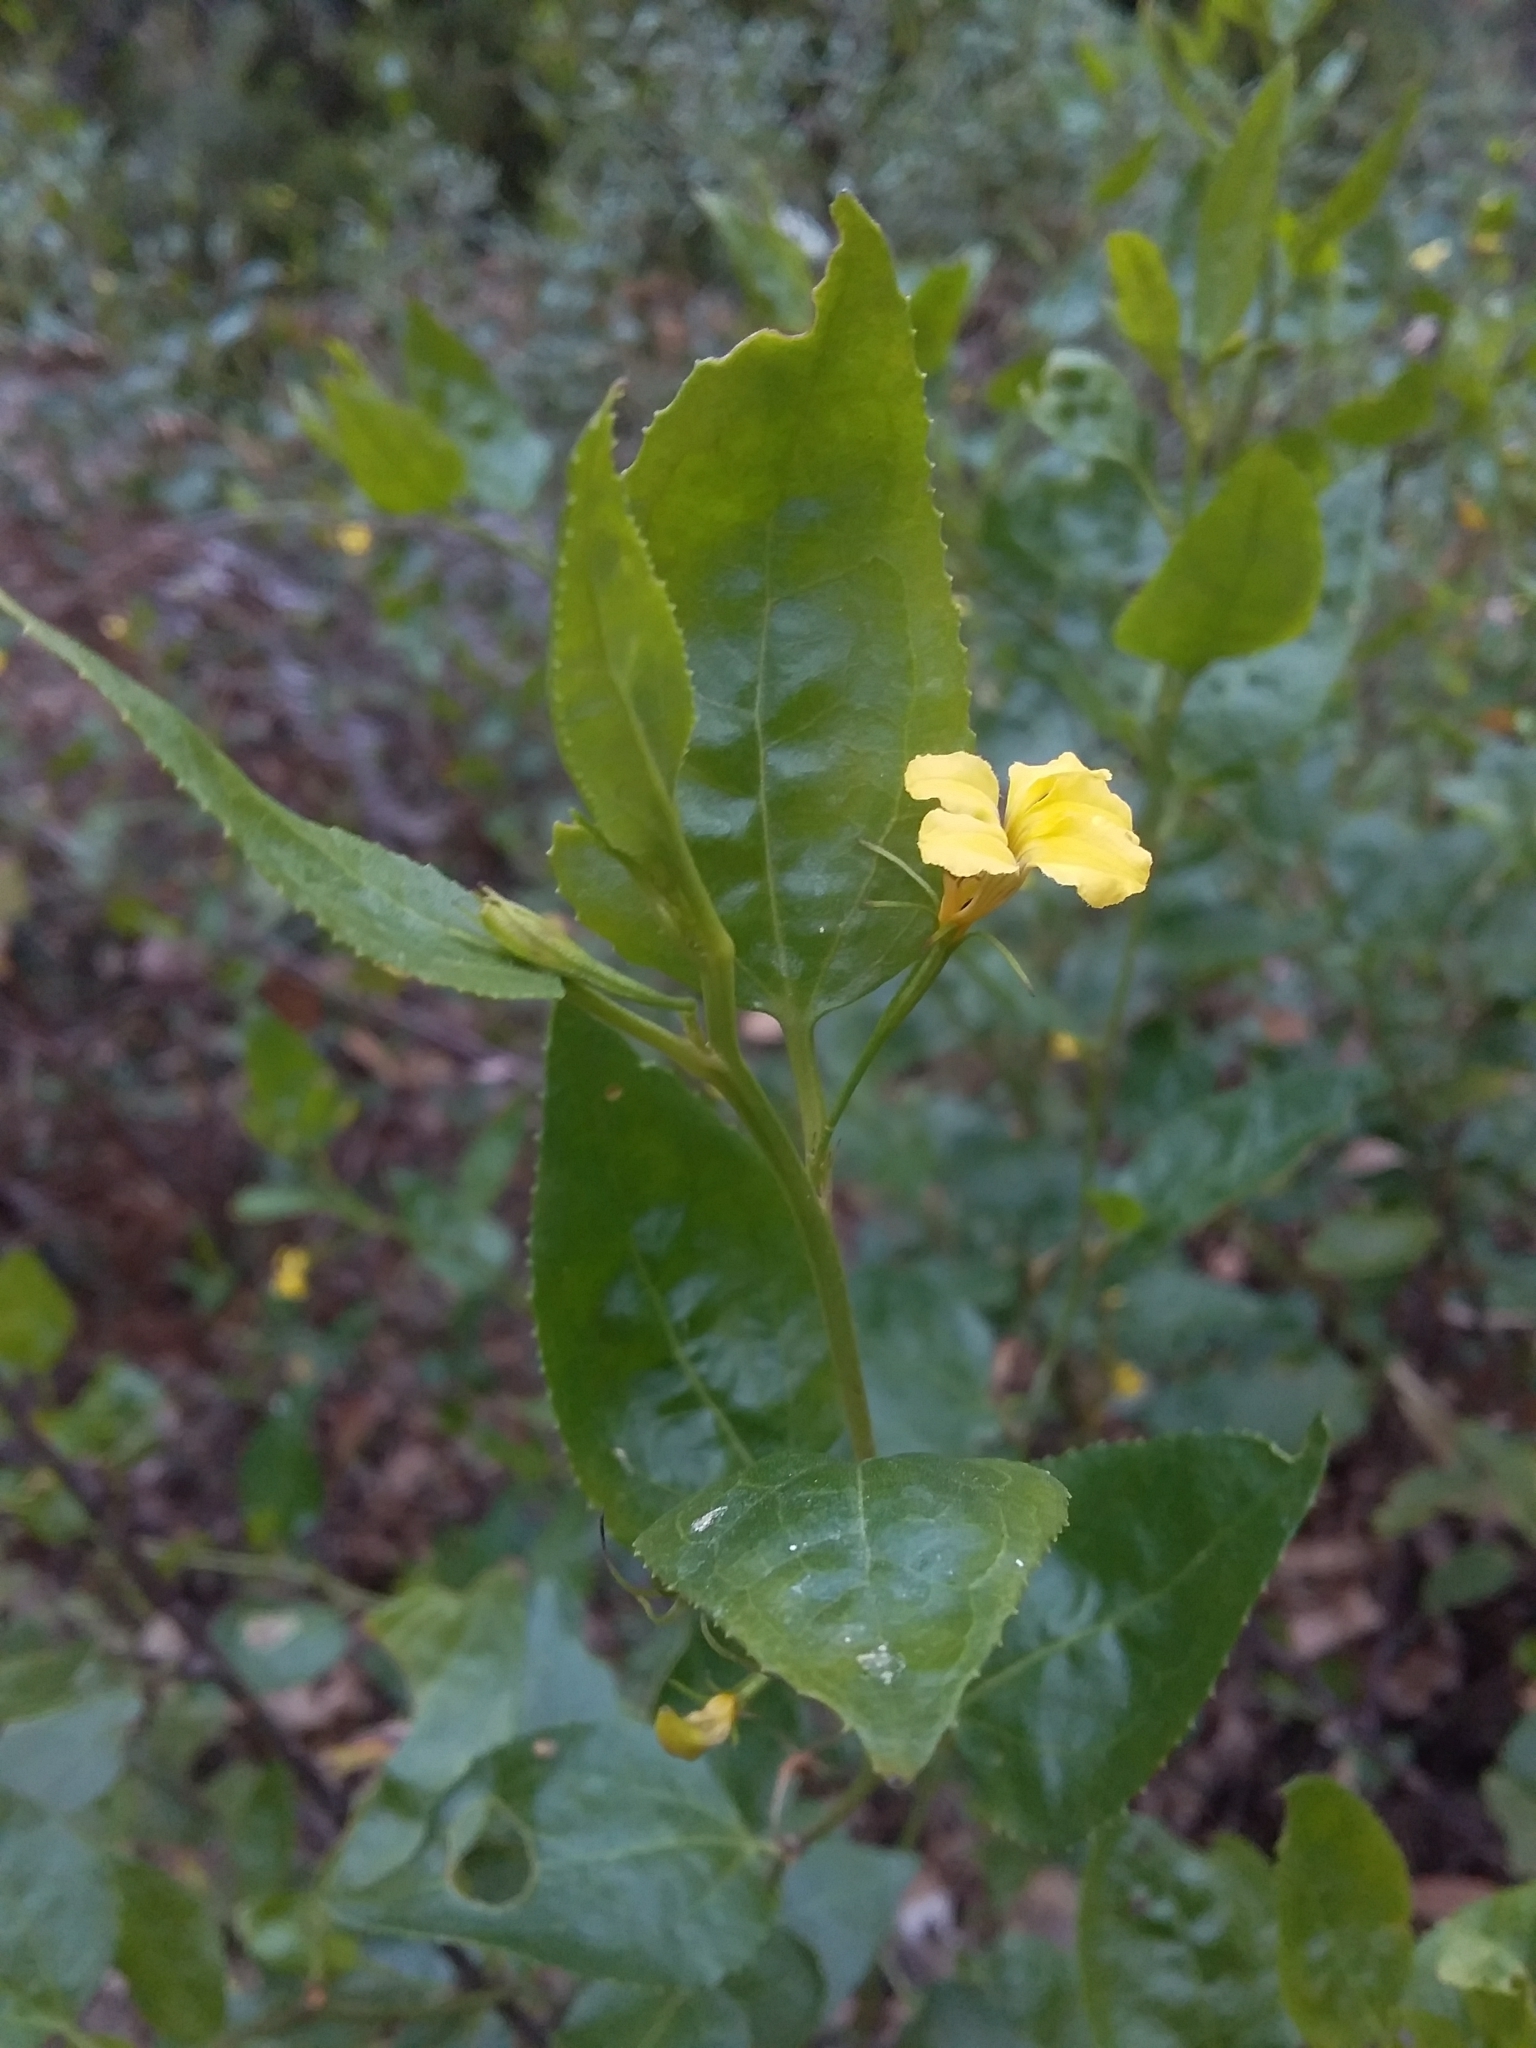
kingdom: Plantae
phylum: Tracheophyta
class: Magnoliopsida
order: Asterales
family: Goodeniaceae
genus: Goodenia
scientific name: Goodenia ovata
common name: Hop goodenia
